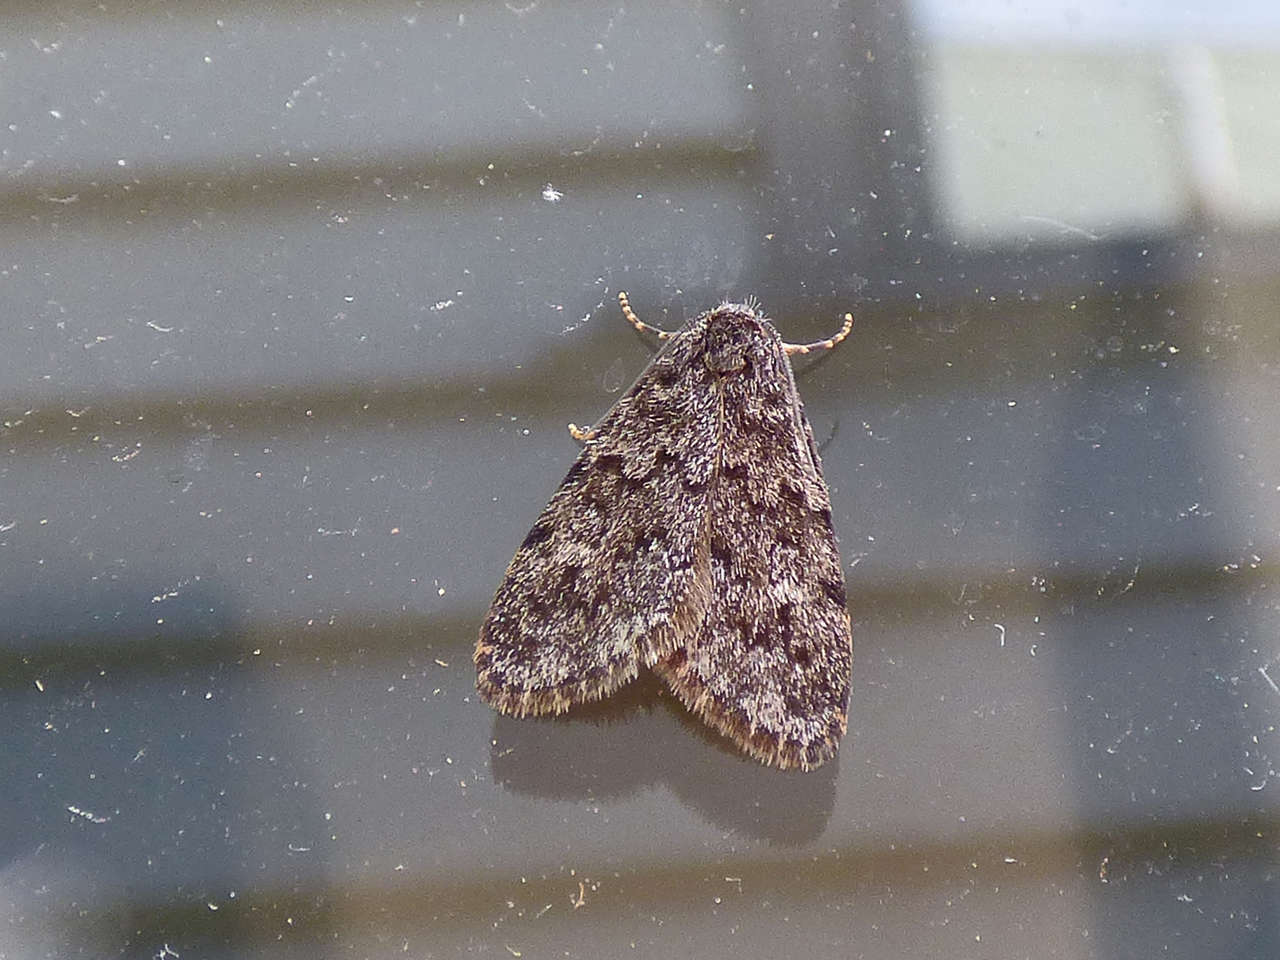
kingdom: Animalia
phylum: Arthropoda
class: Insecta
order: Lepidoptera
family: Erebidae
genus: Halone
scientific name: Halone consolatrix
